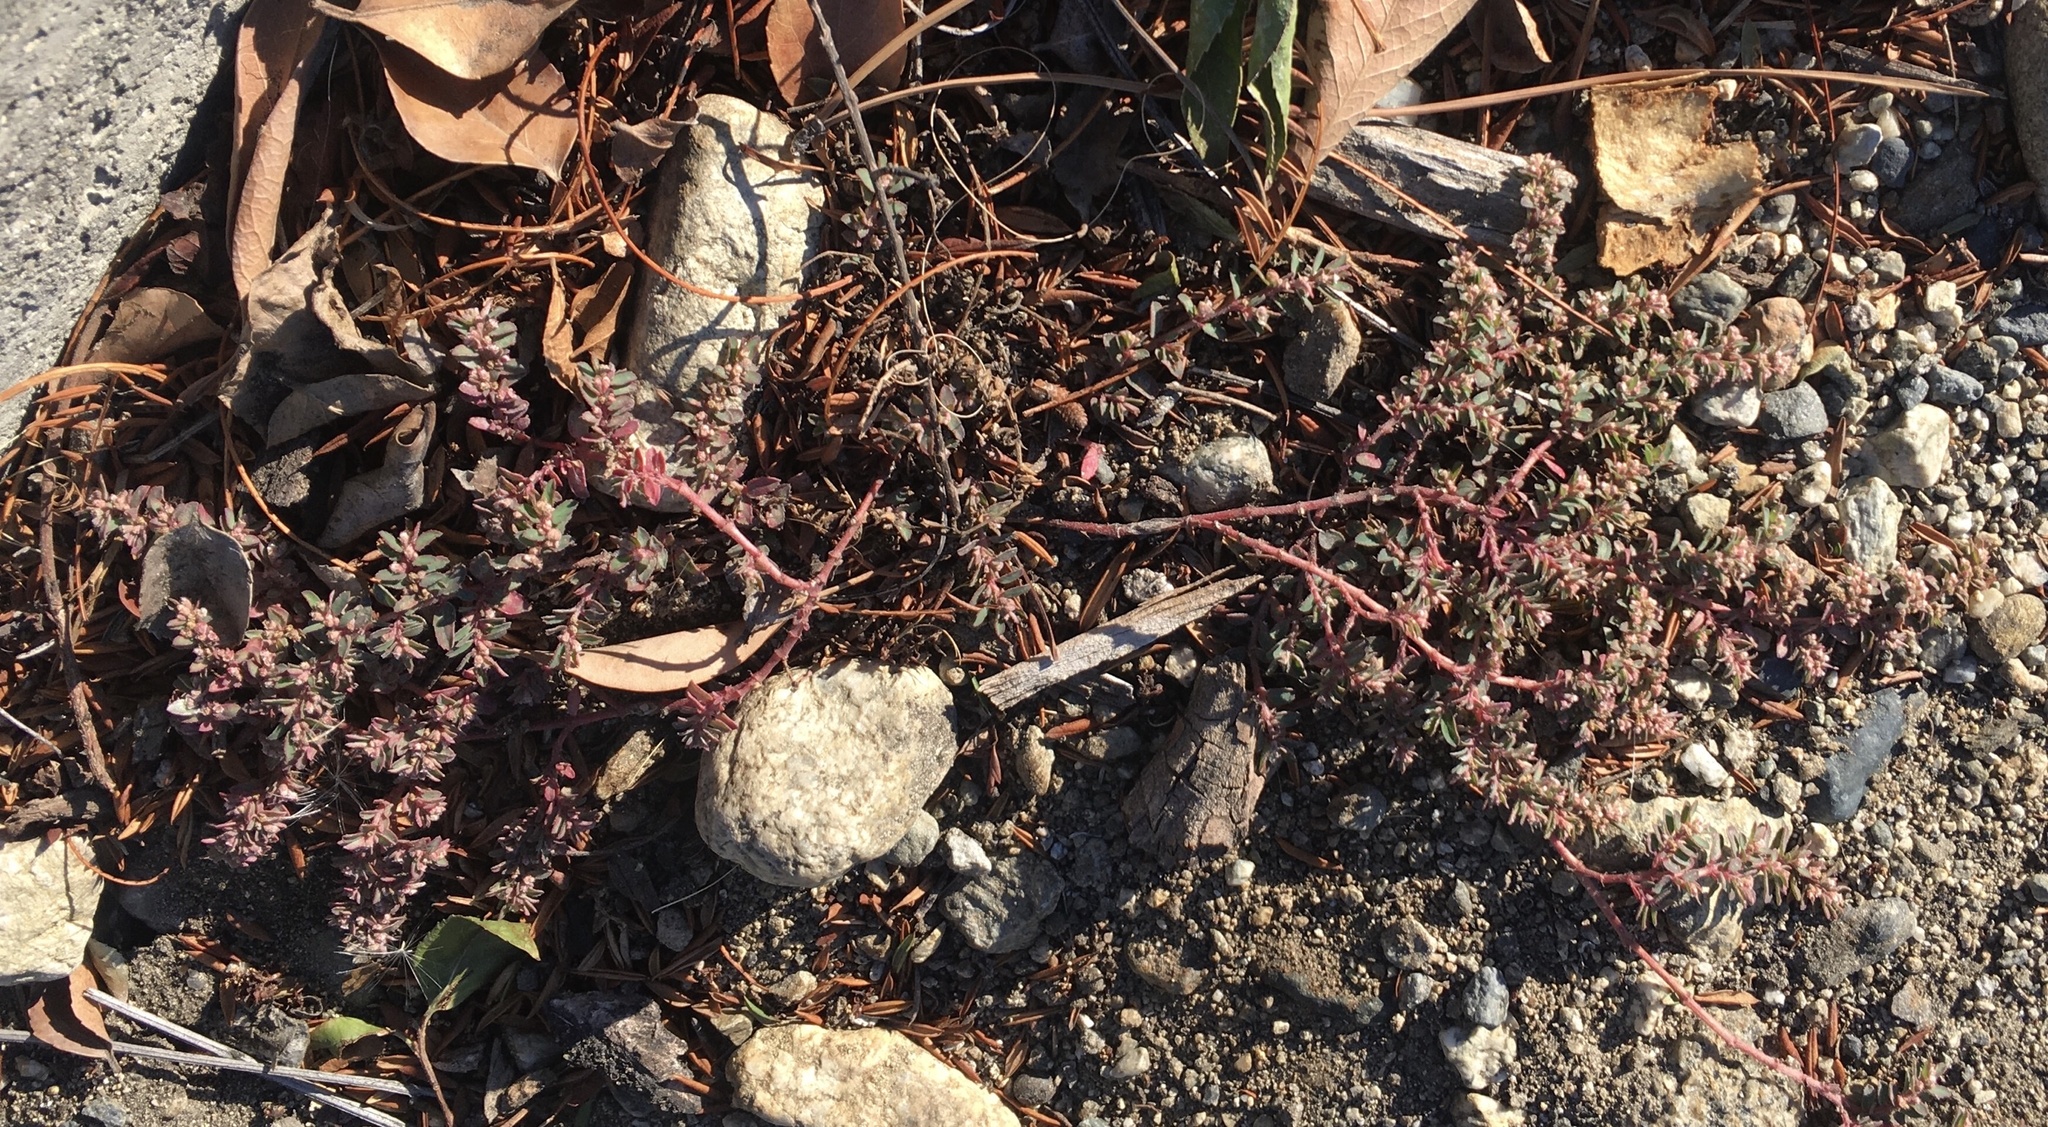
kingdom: Plantae
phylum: Tracheophyta
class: Magnoliopsida
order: Malpighiales
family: Euphorbiaceae
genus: Euphorbia
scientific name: Euphorbia maculata
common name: Spotted spurge
